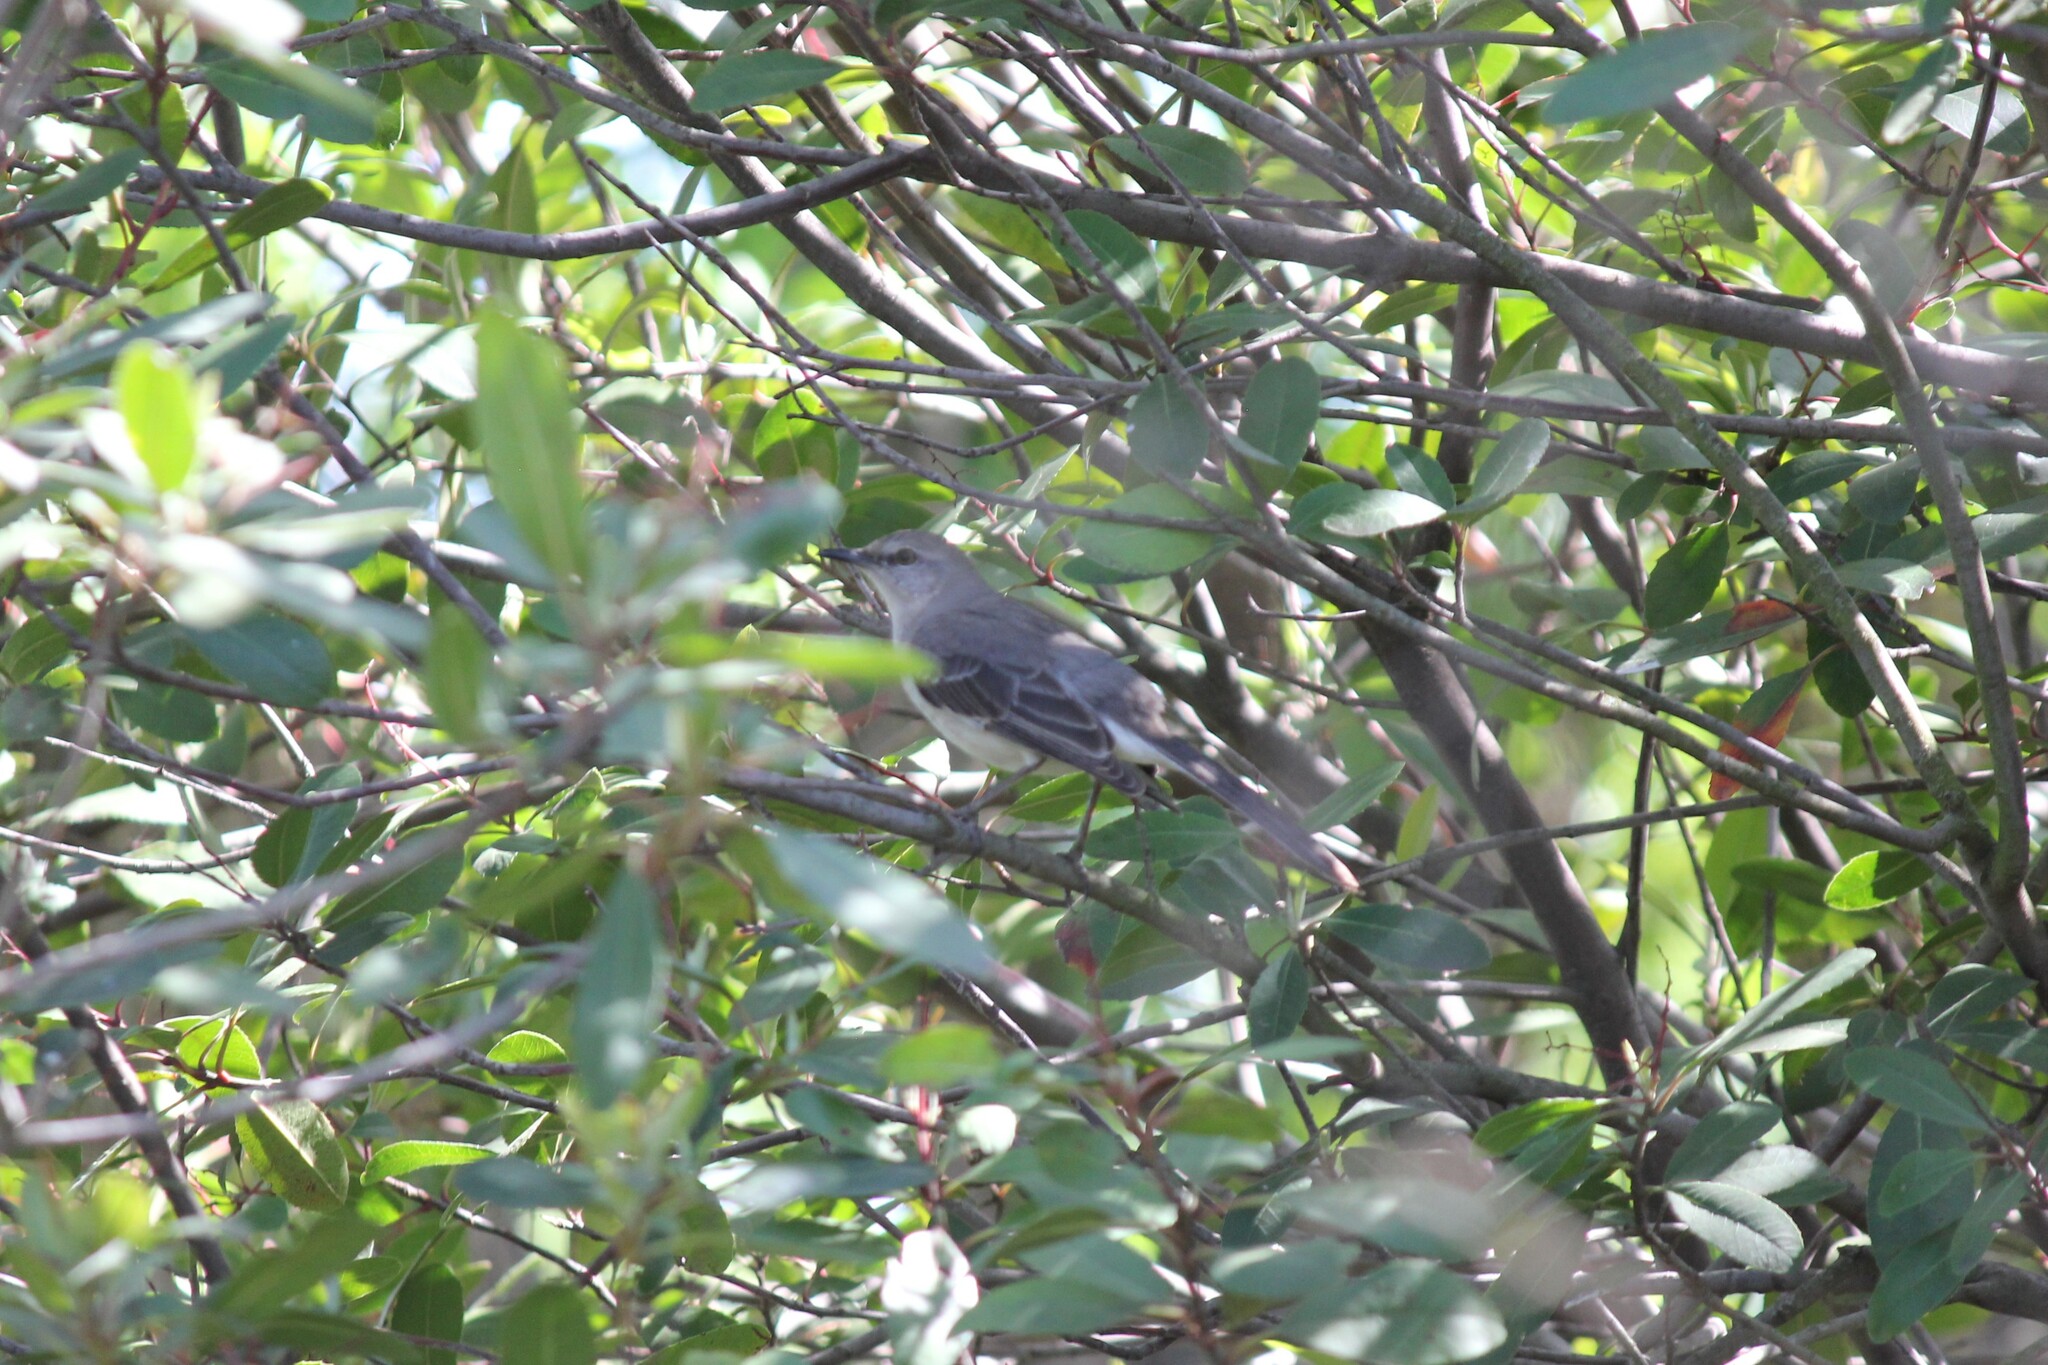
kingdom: Animalia
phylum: Chordata
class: Aves
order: Passeriformes
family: Mimidae
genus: Mimus
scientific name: Mimus polyglottos
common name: Northern mockingbird
